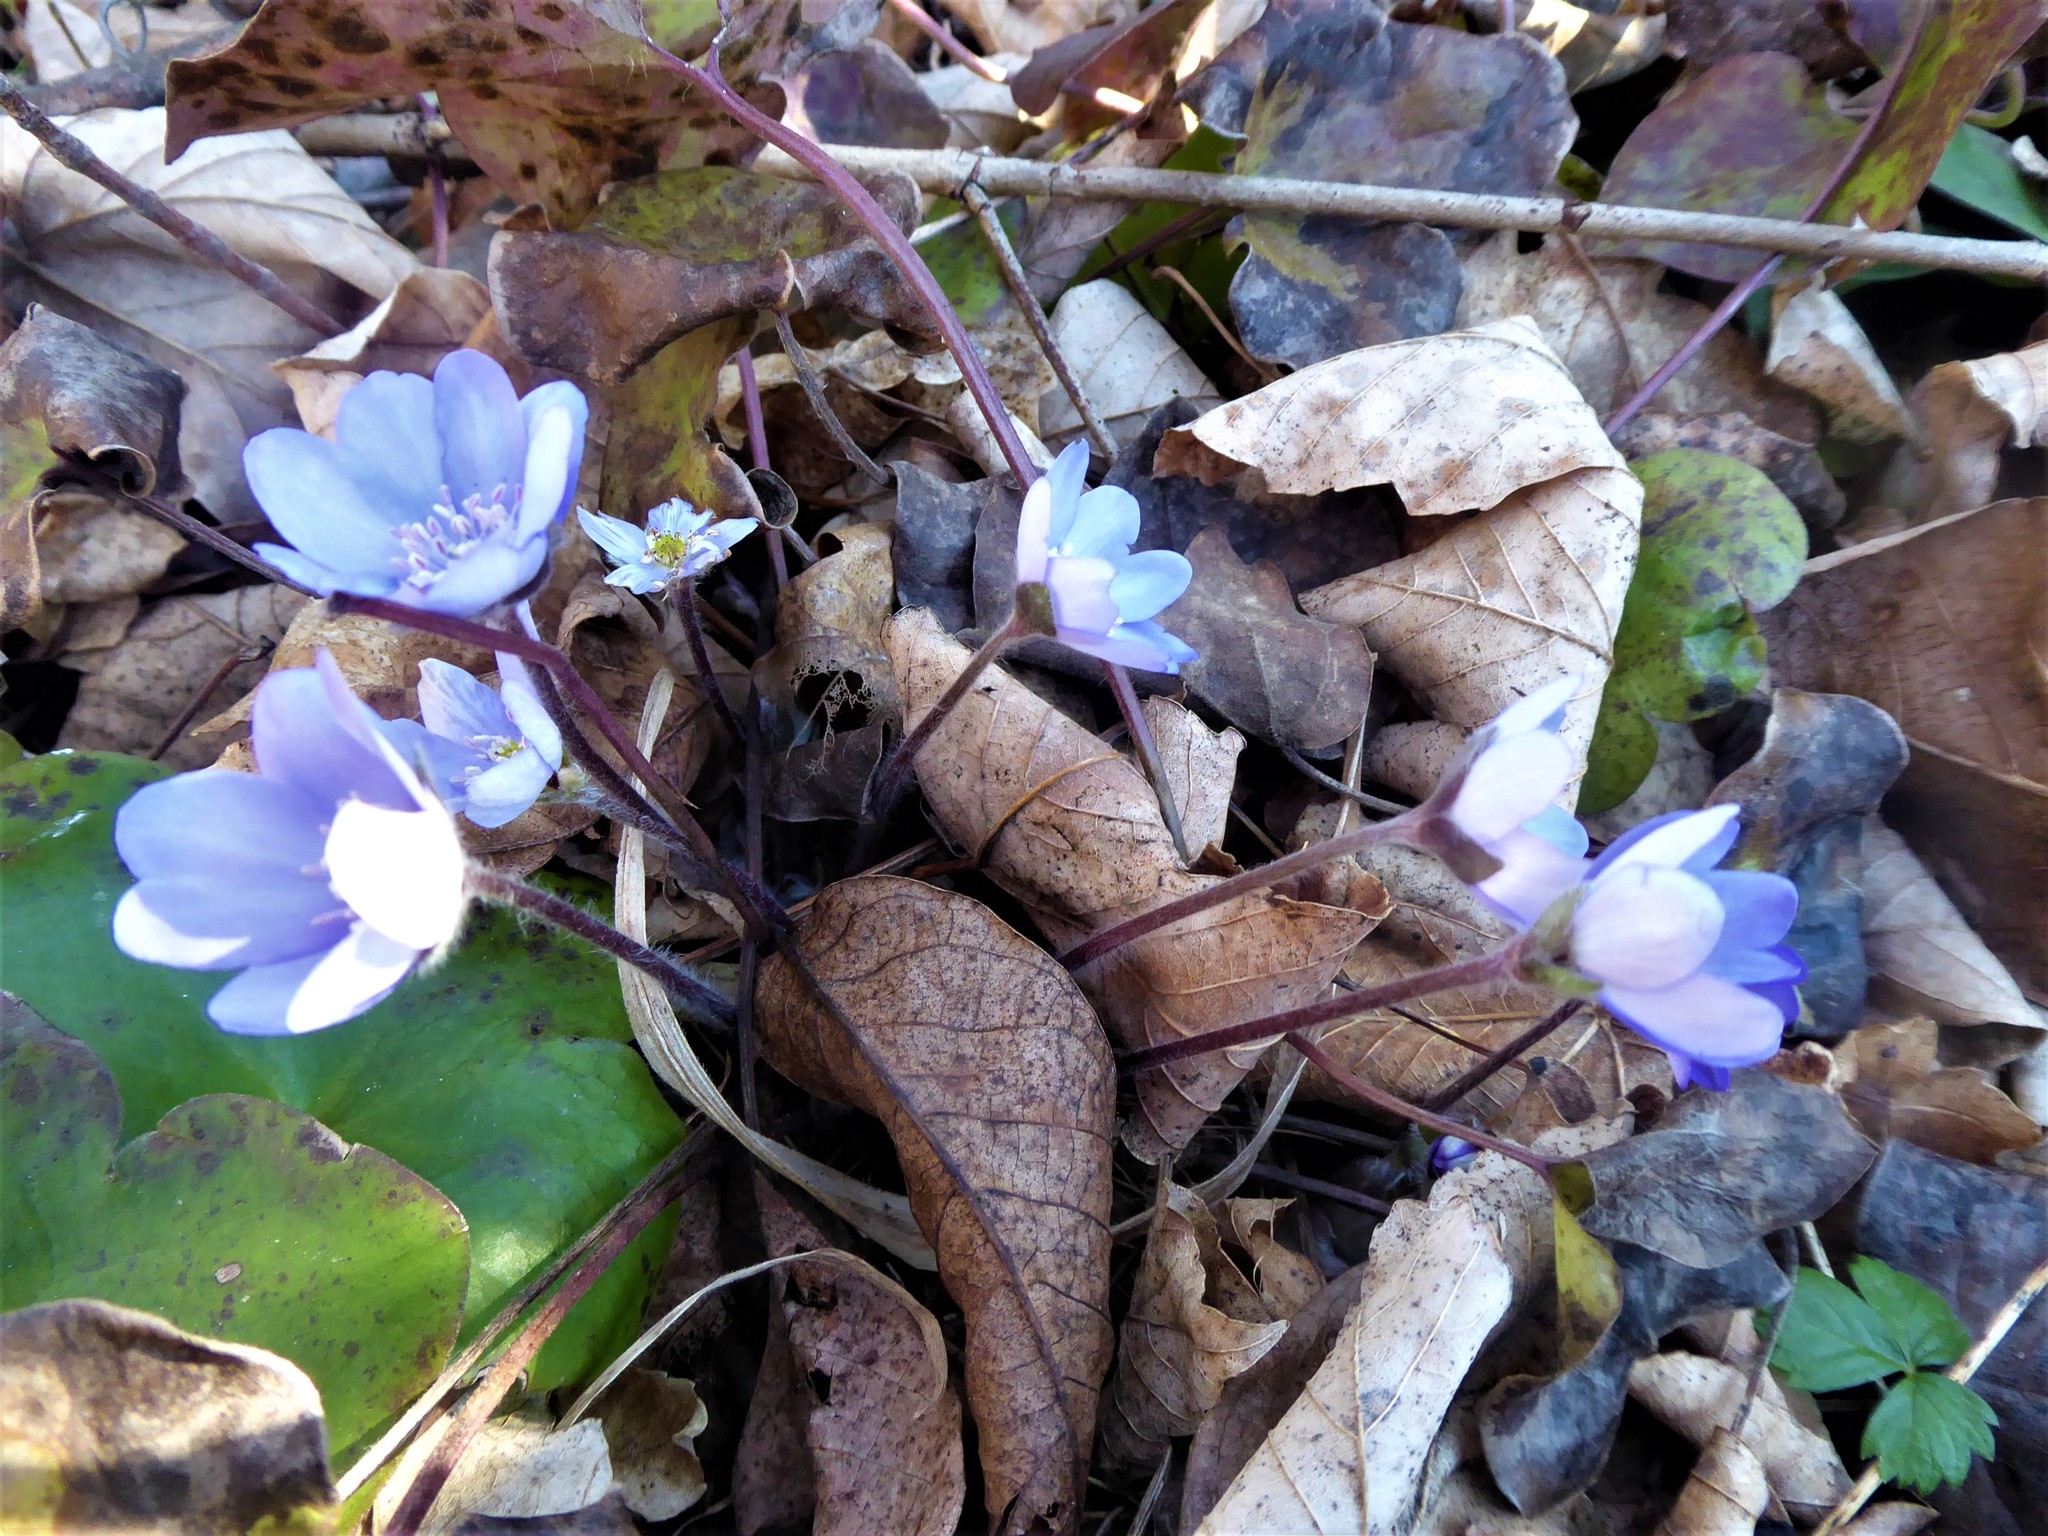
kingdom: Plantae
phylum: Tracheophyta
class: Magnoliopsida
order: Ranunculales
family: Ranunculaceae
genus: Hepatica
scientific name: Hepatica nobilis
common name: Liverleaf
